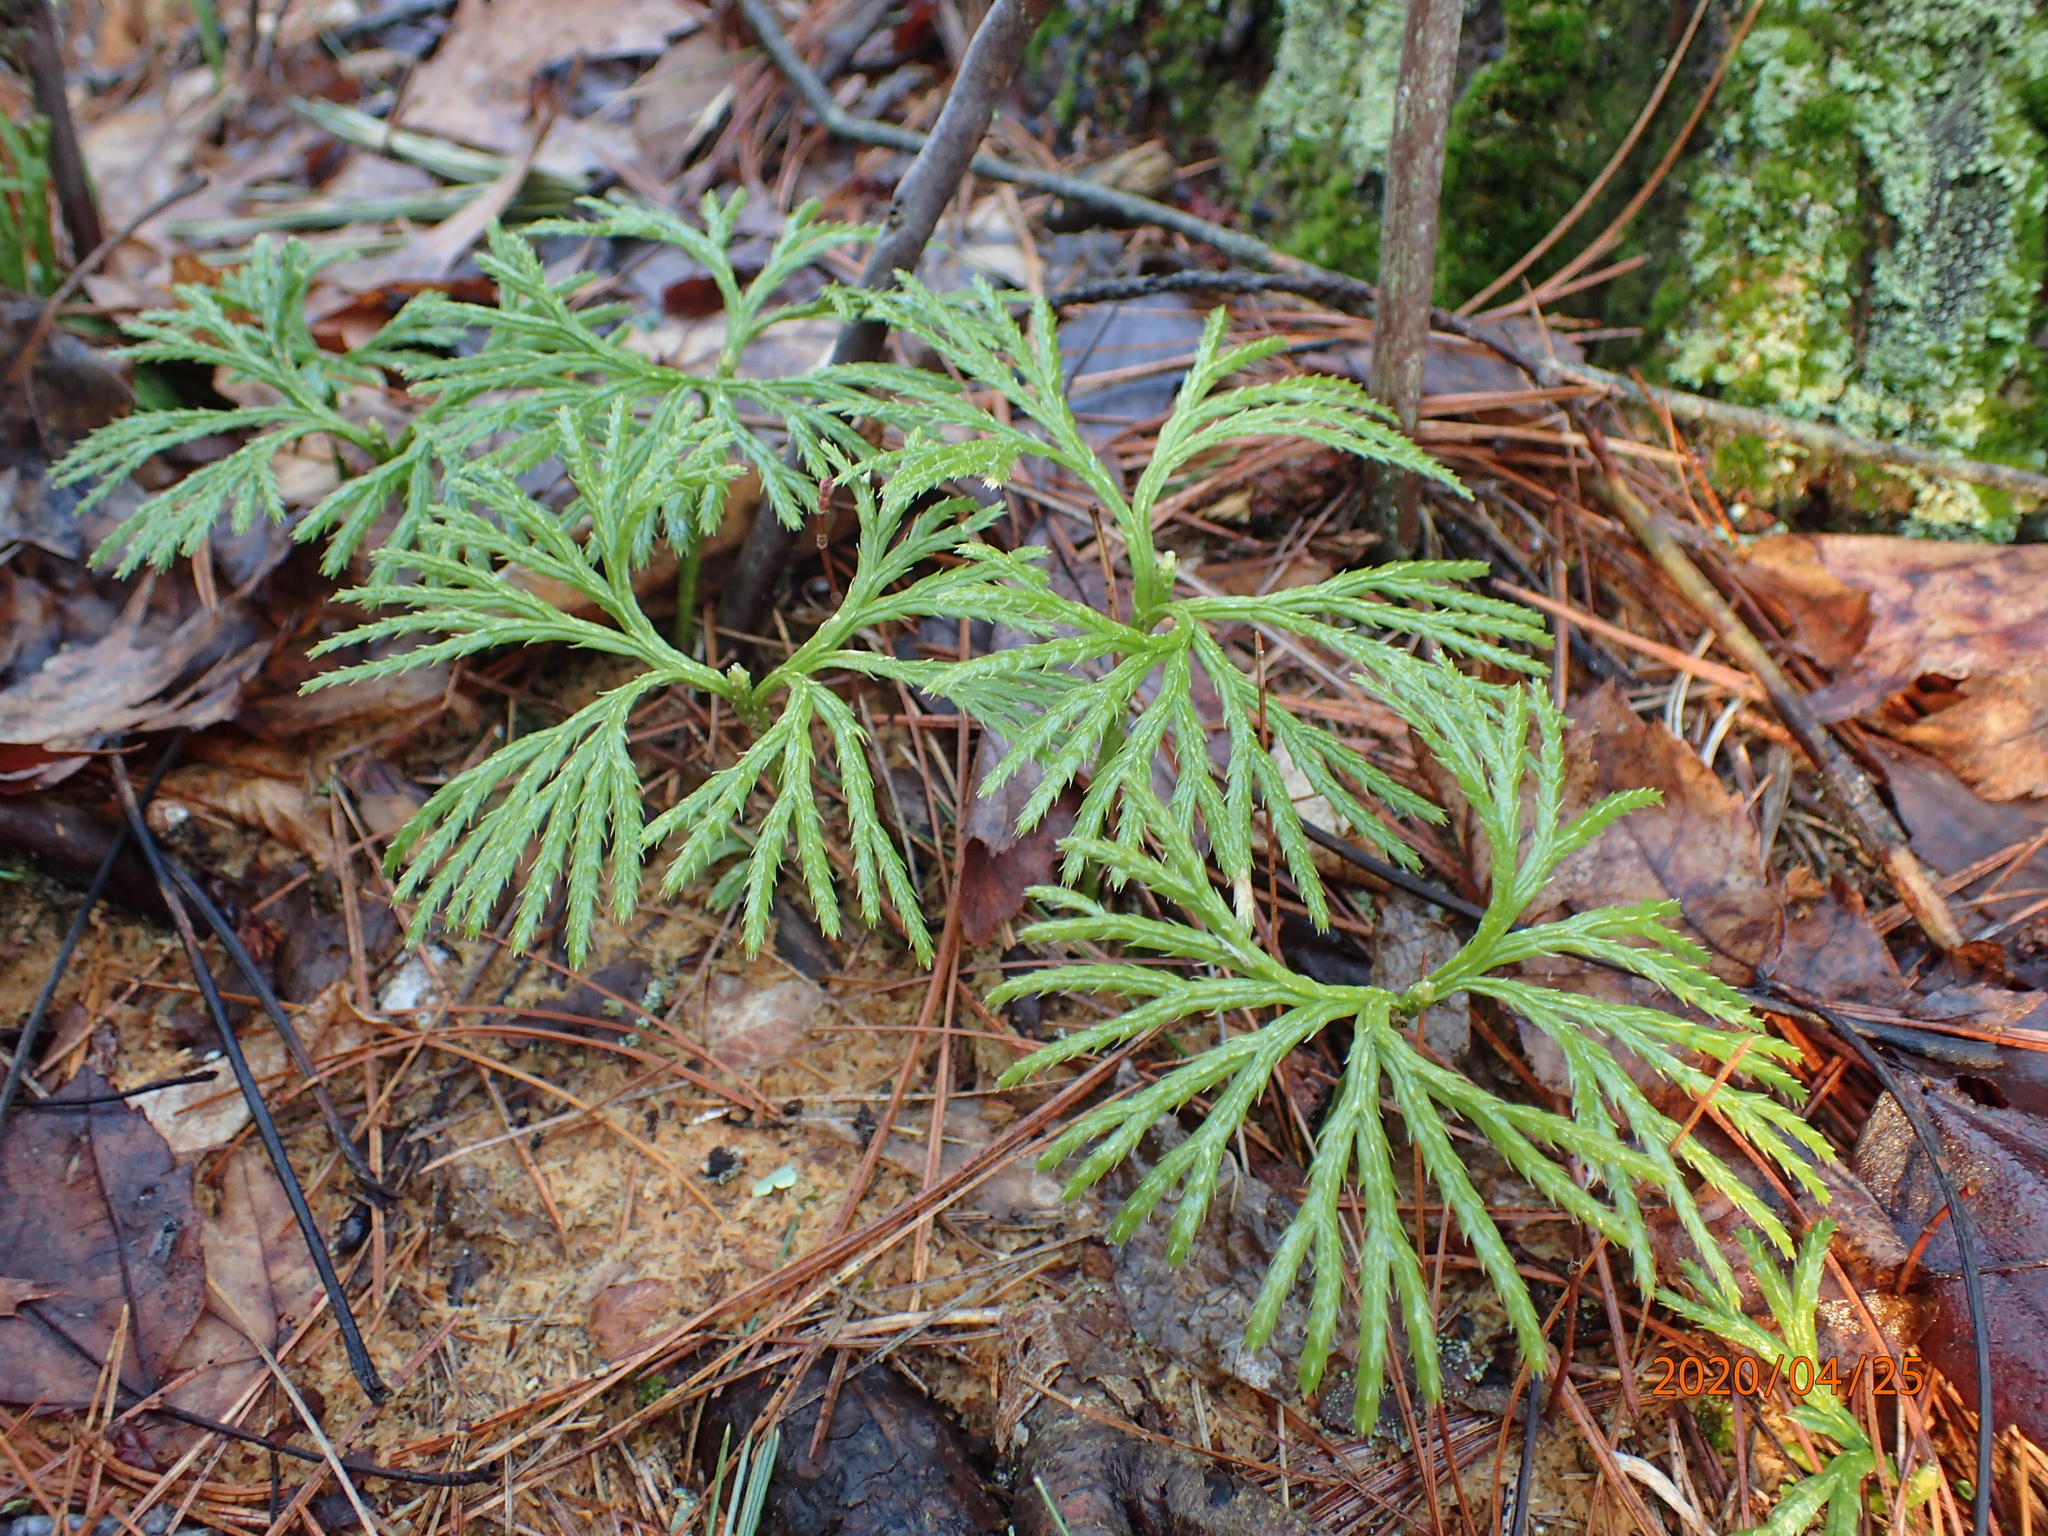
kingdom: Plantae
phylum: Tracheophyta
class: Lycopodiopsida
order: Lycopodiales
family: Lycopodiaceae
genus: Diphasiastrum
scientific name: Diphasiastrum digitatum
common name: Southern running-pine
